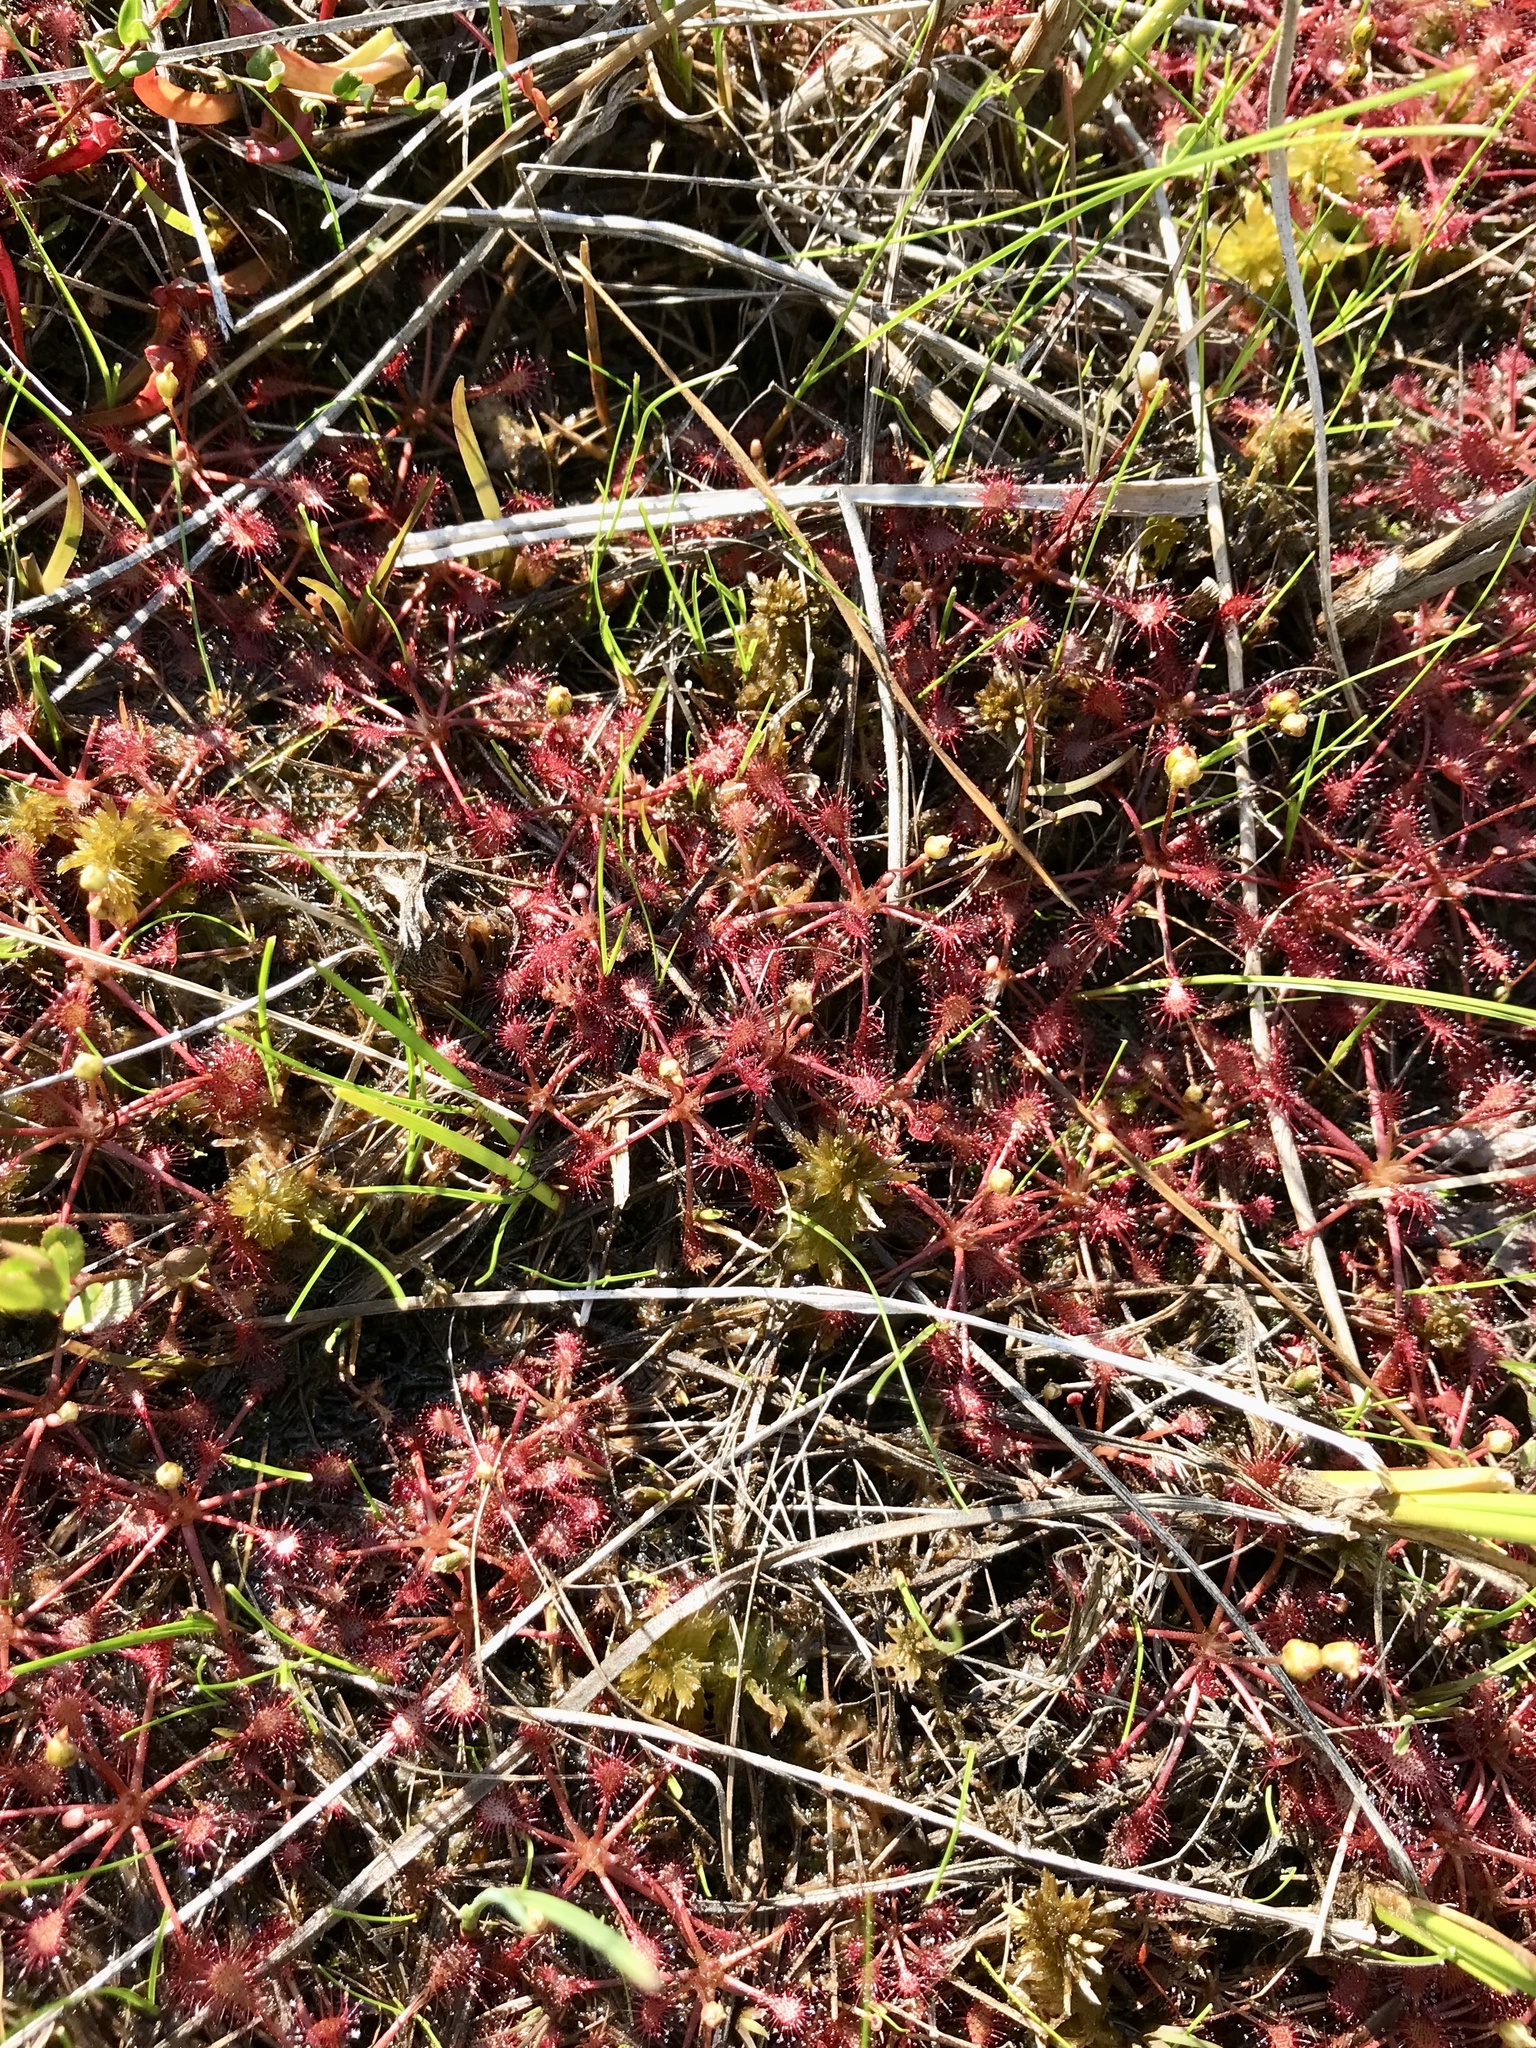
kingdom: Plantae
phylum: Tracheophyta
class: Magnoliopsida
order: Caryophyllales
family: Droseraceae
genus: Drosera
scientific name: Drosera intermedia
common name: Oblong-leaved sundew
